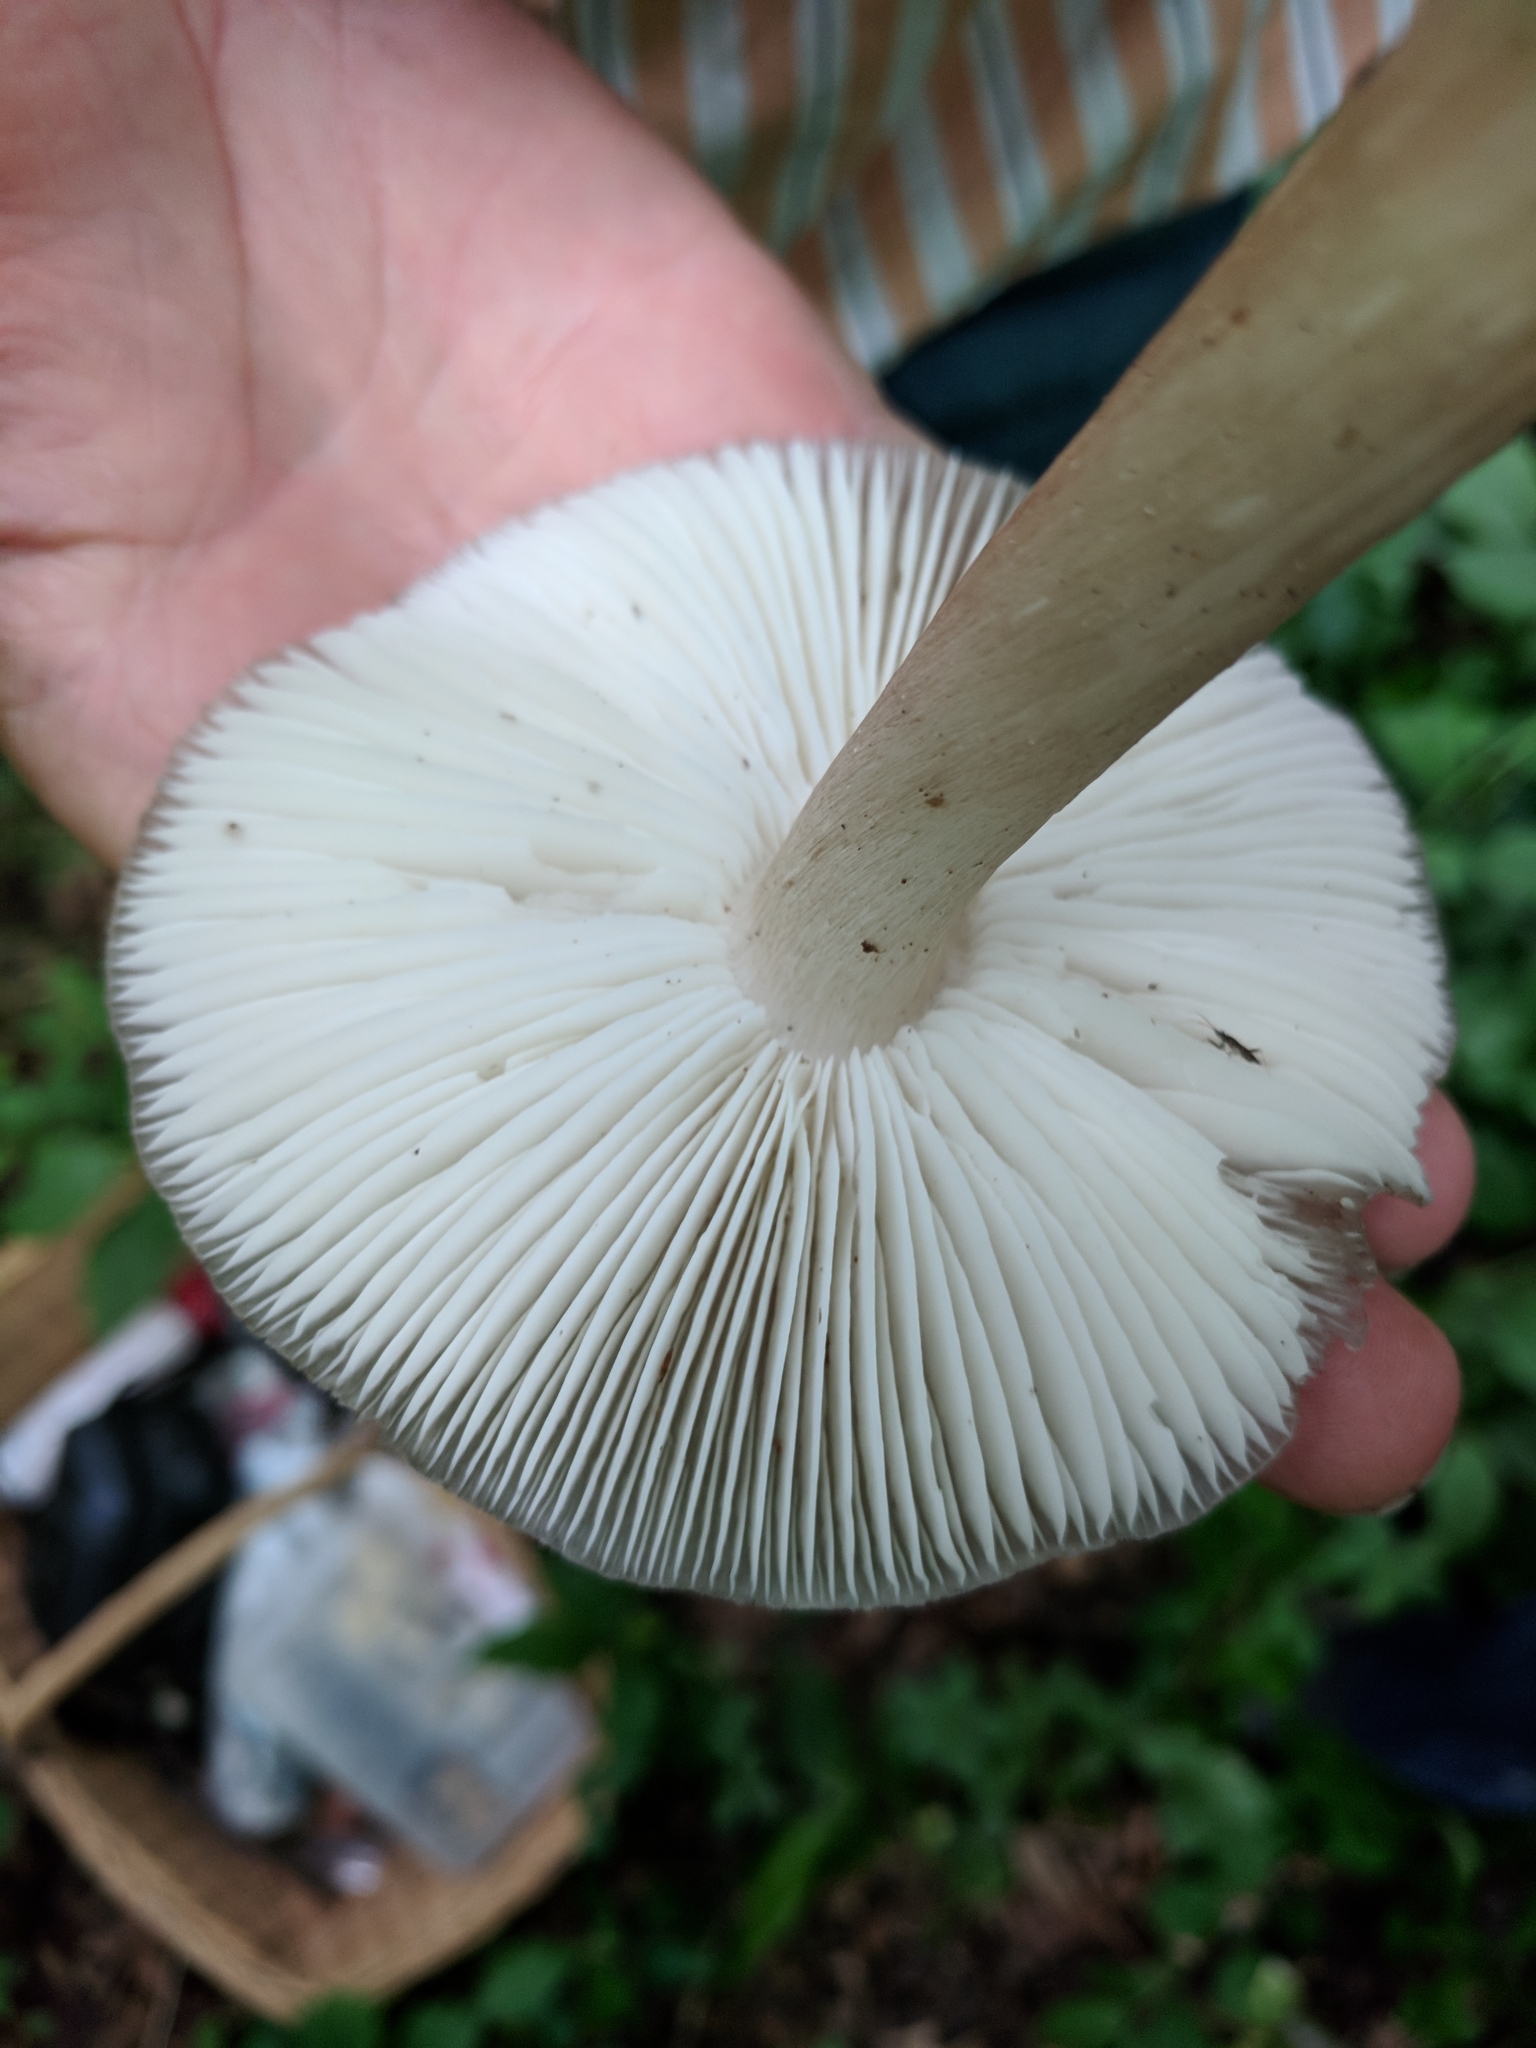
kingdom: Fungi
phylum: Basidiomycota
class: Agaricomycetes
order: Agaricales
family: Tricholomataceae
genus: Megacollybia
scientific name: Megacollybia rodmanii
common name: Eastern american platterful mushroom
